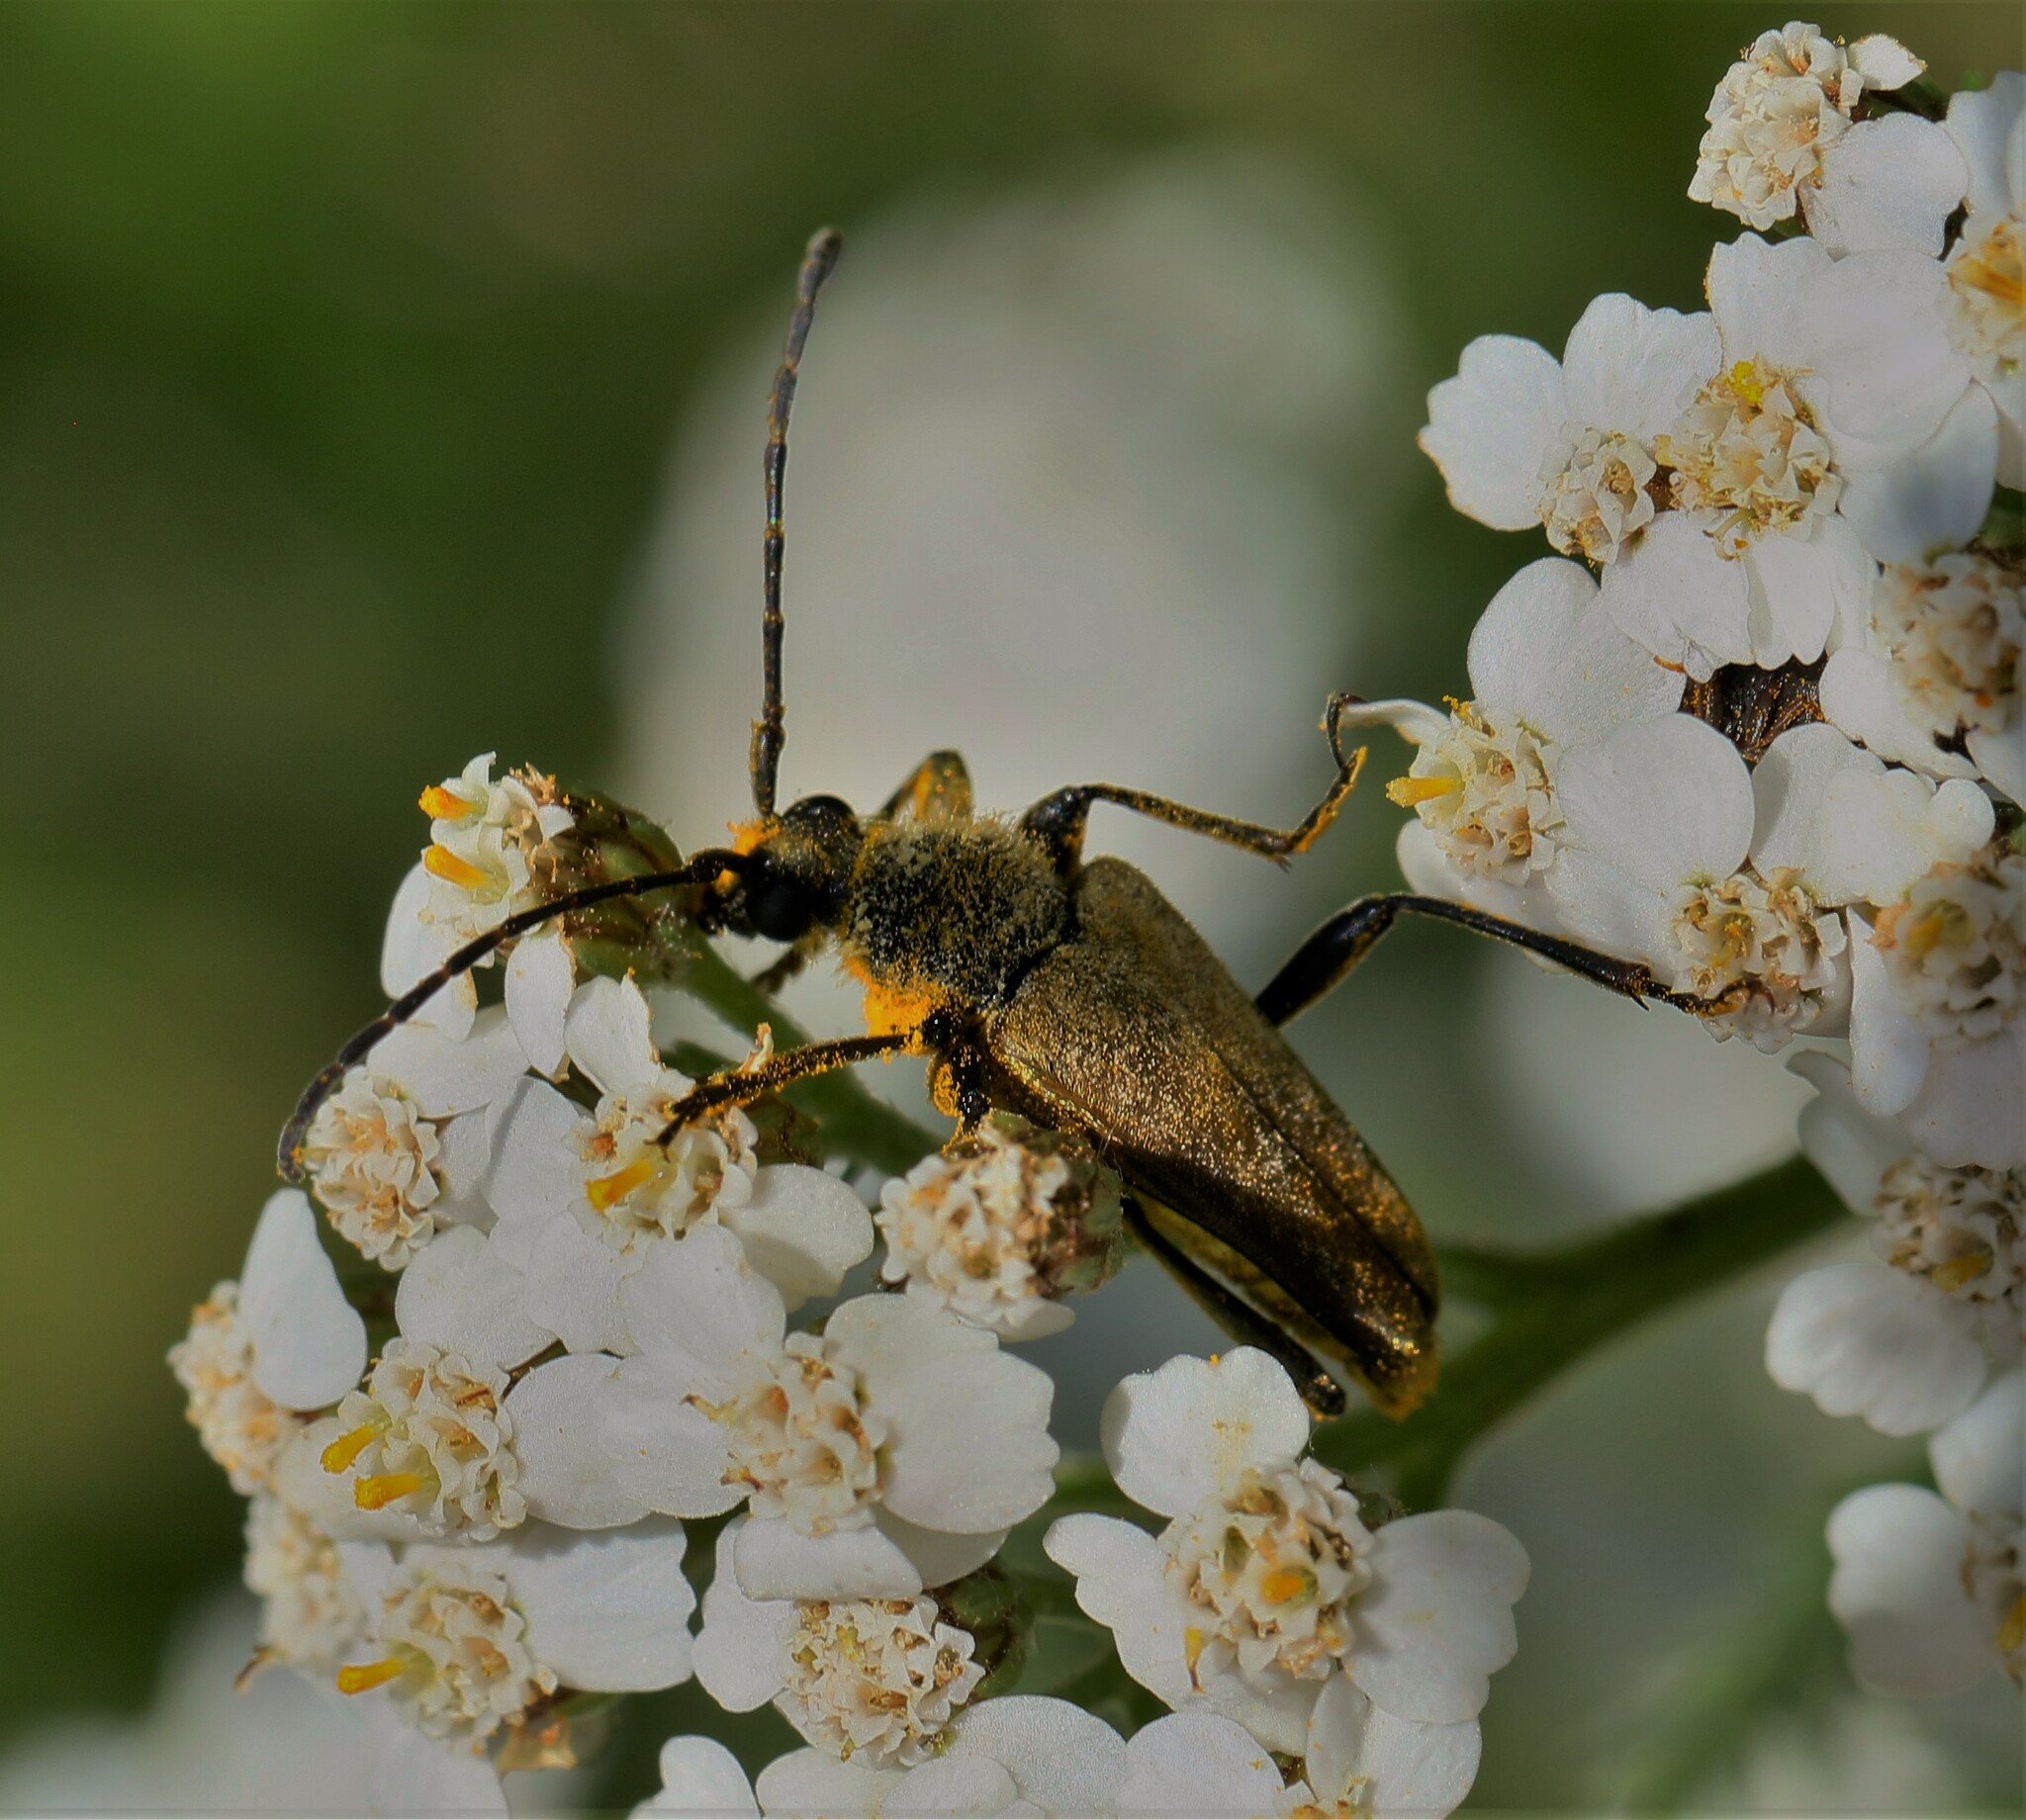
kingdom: Animalia
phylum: Arthropoda
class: Insecta
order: Coleoptera
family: Cerambycidae
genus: Cosmosalia
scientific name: Cosmosalia chrysocoma
